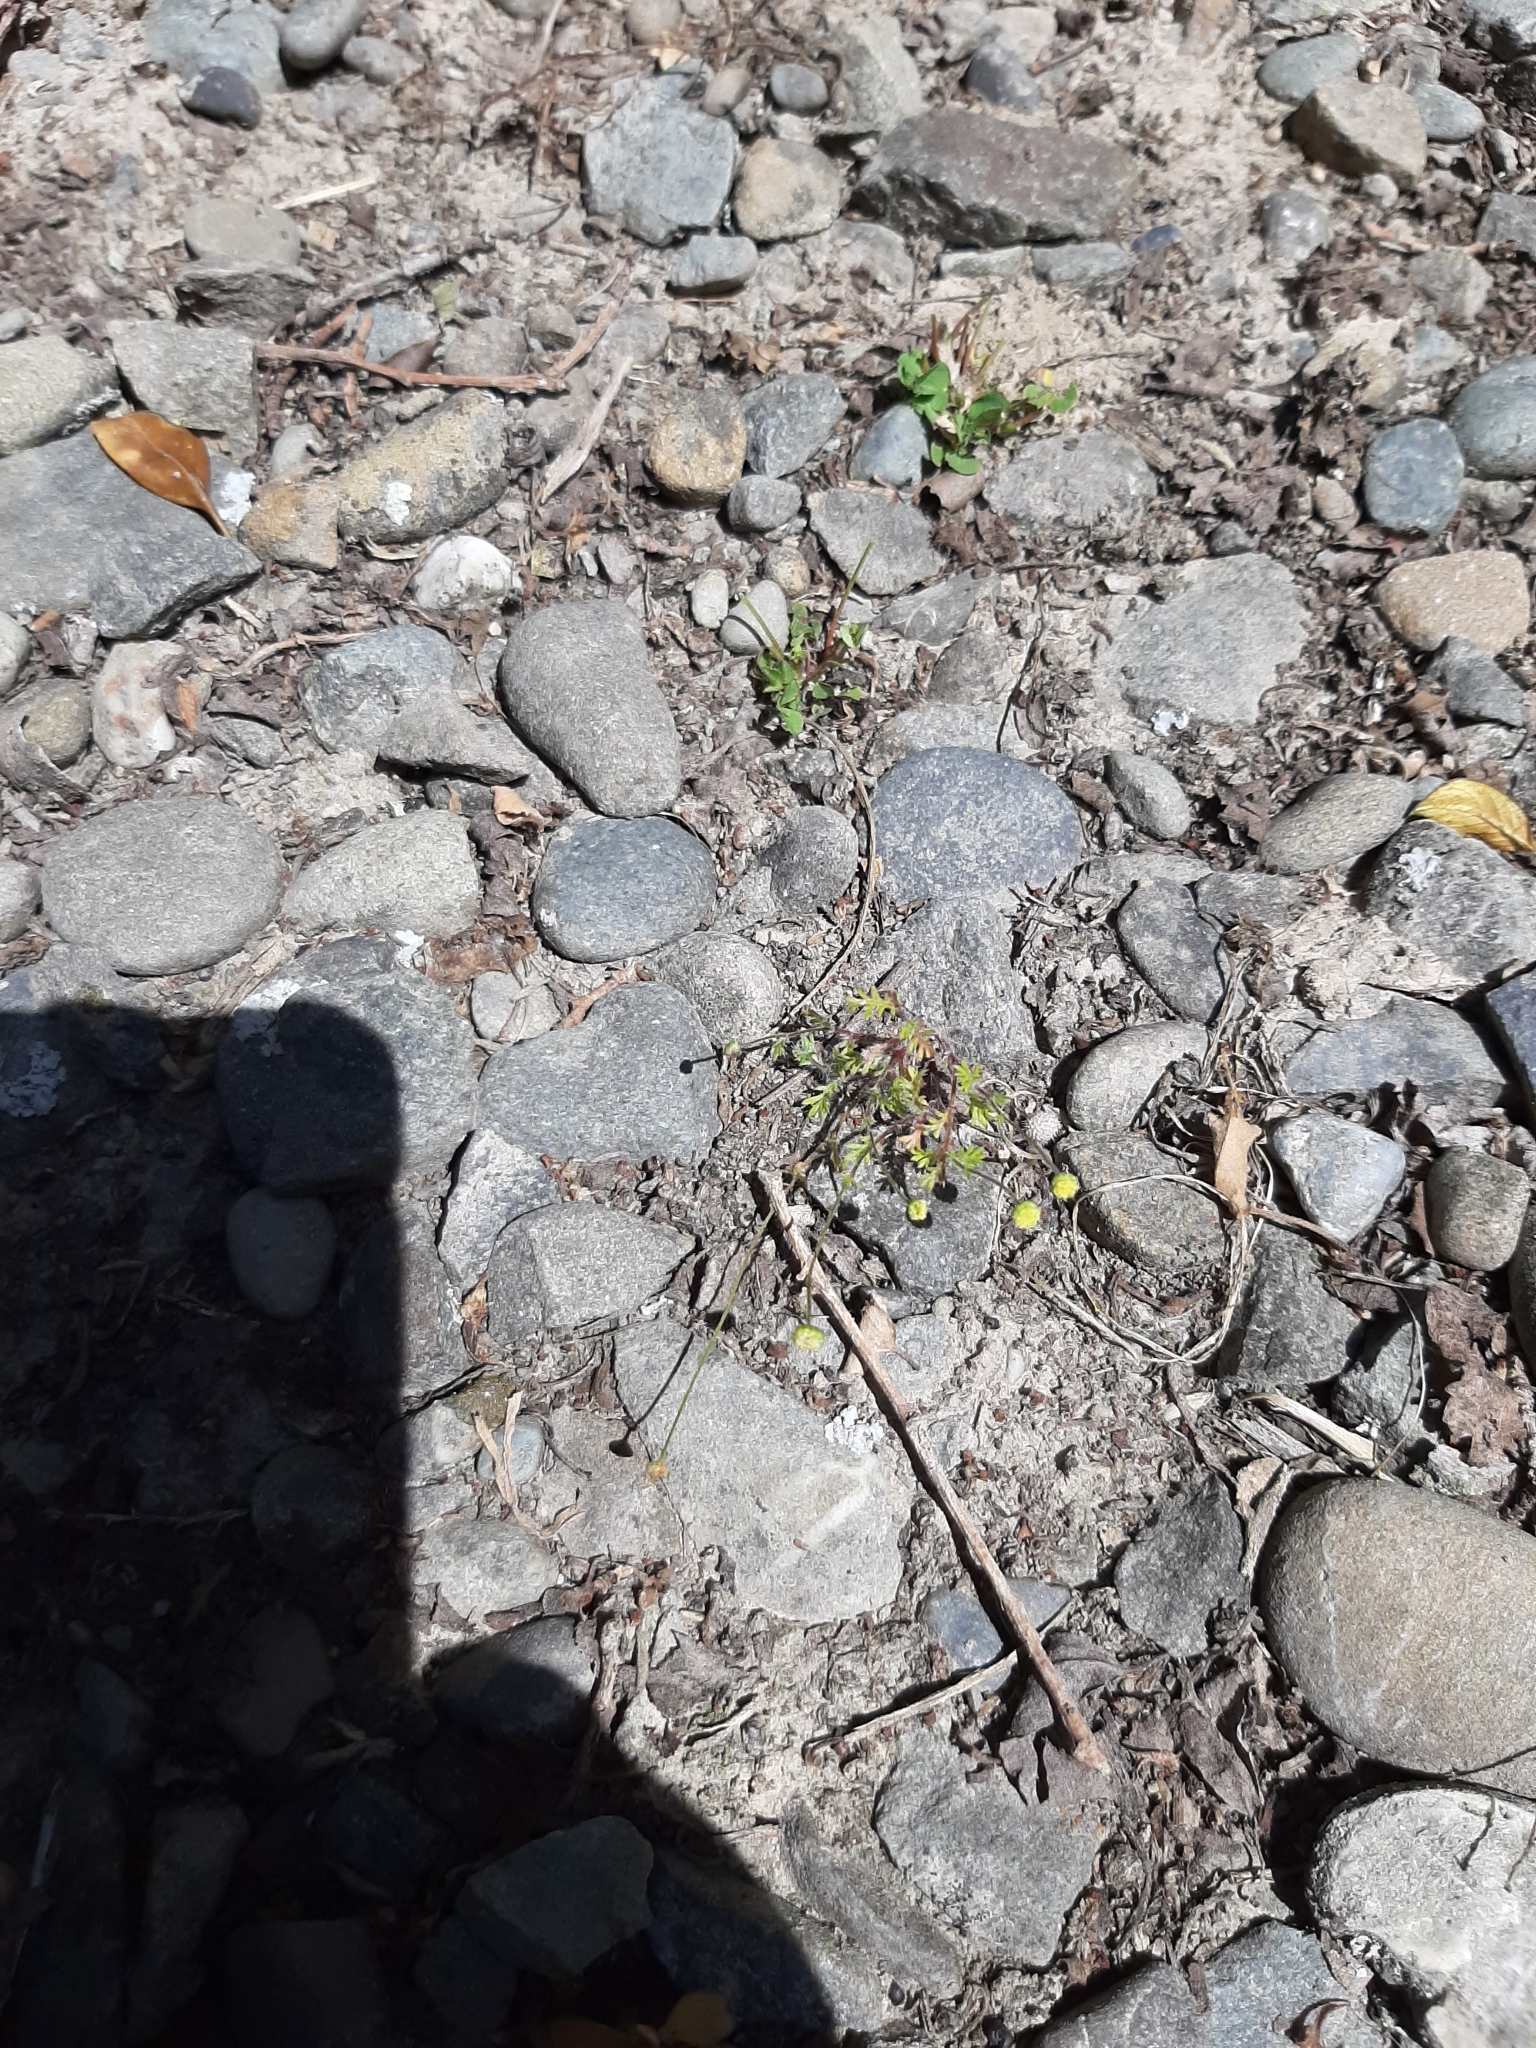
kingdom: Plantae
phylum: Tracheophyta
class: Magnoliopsida
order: Asterales
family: Asteraceae
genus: Cotula
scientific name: Cotula australis
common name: Australian waterbuttons
